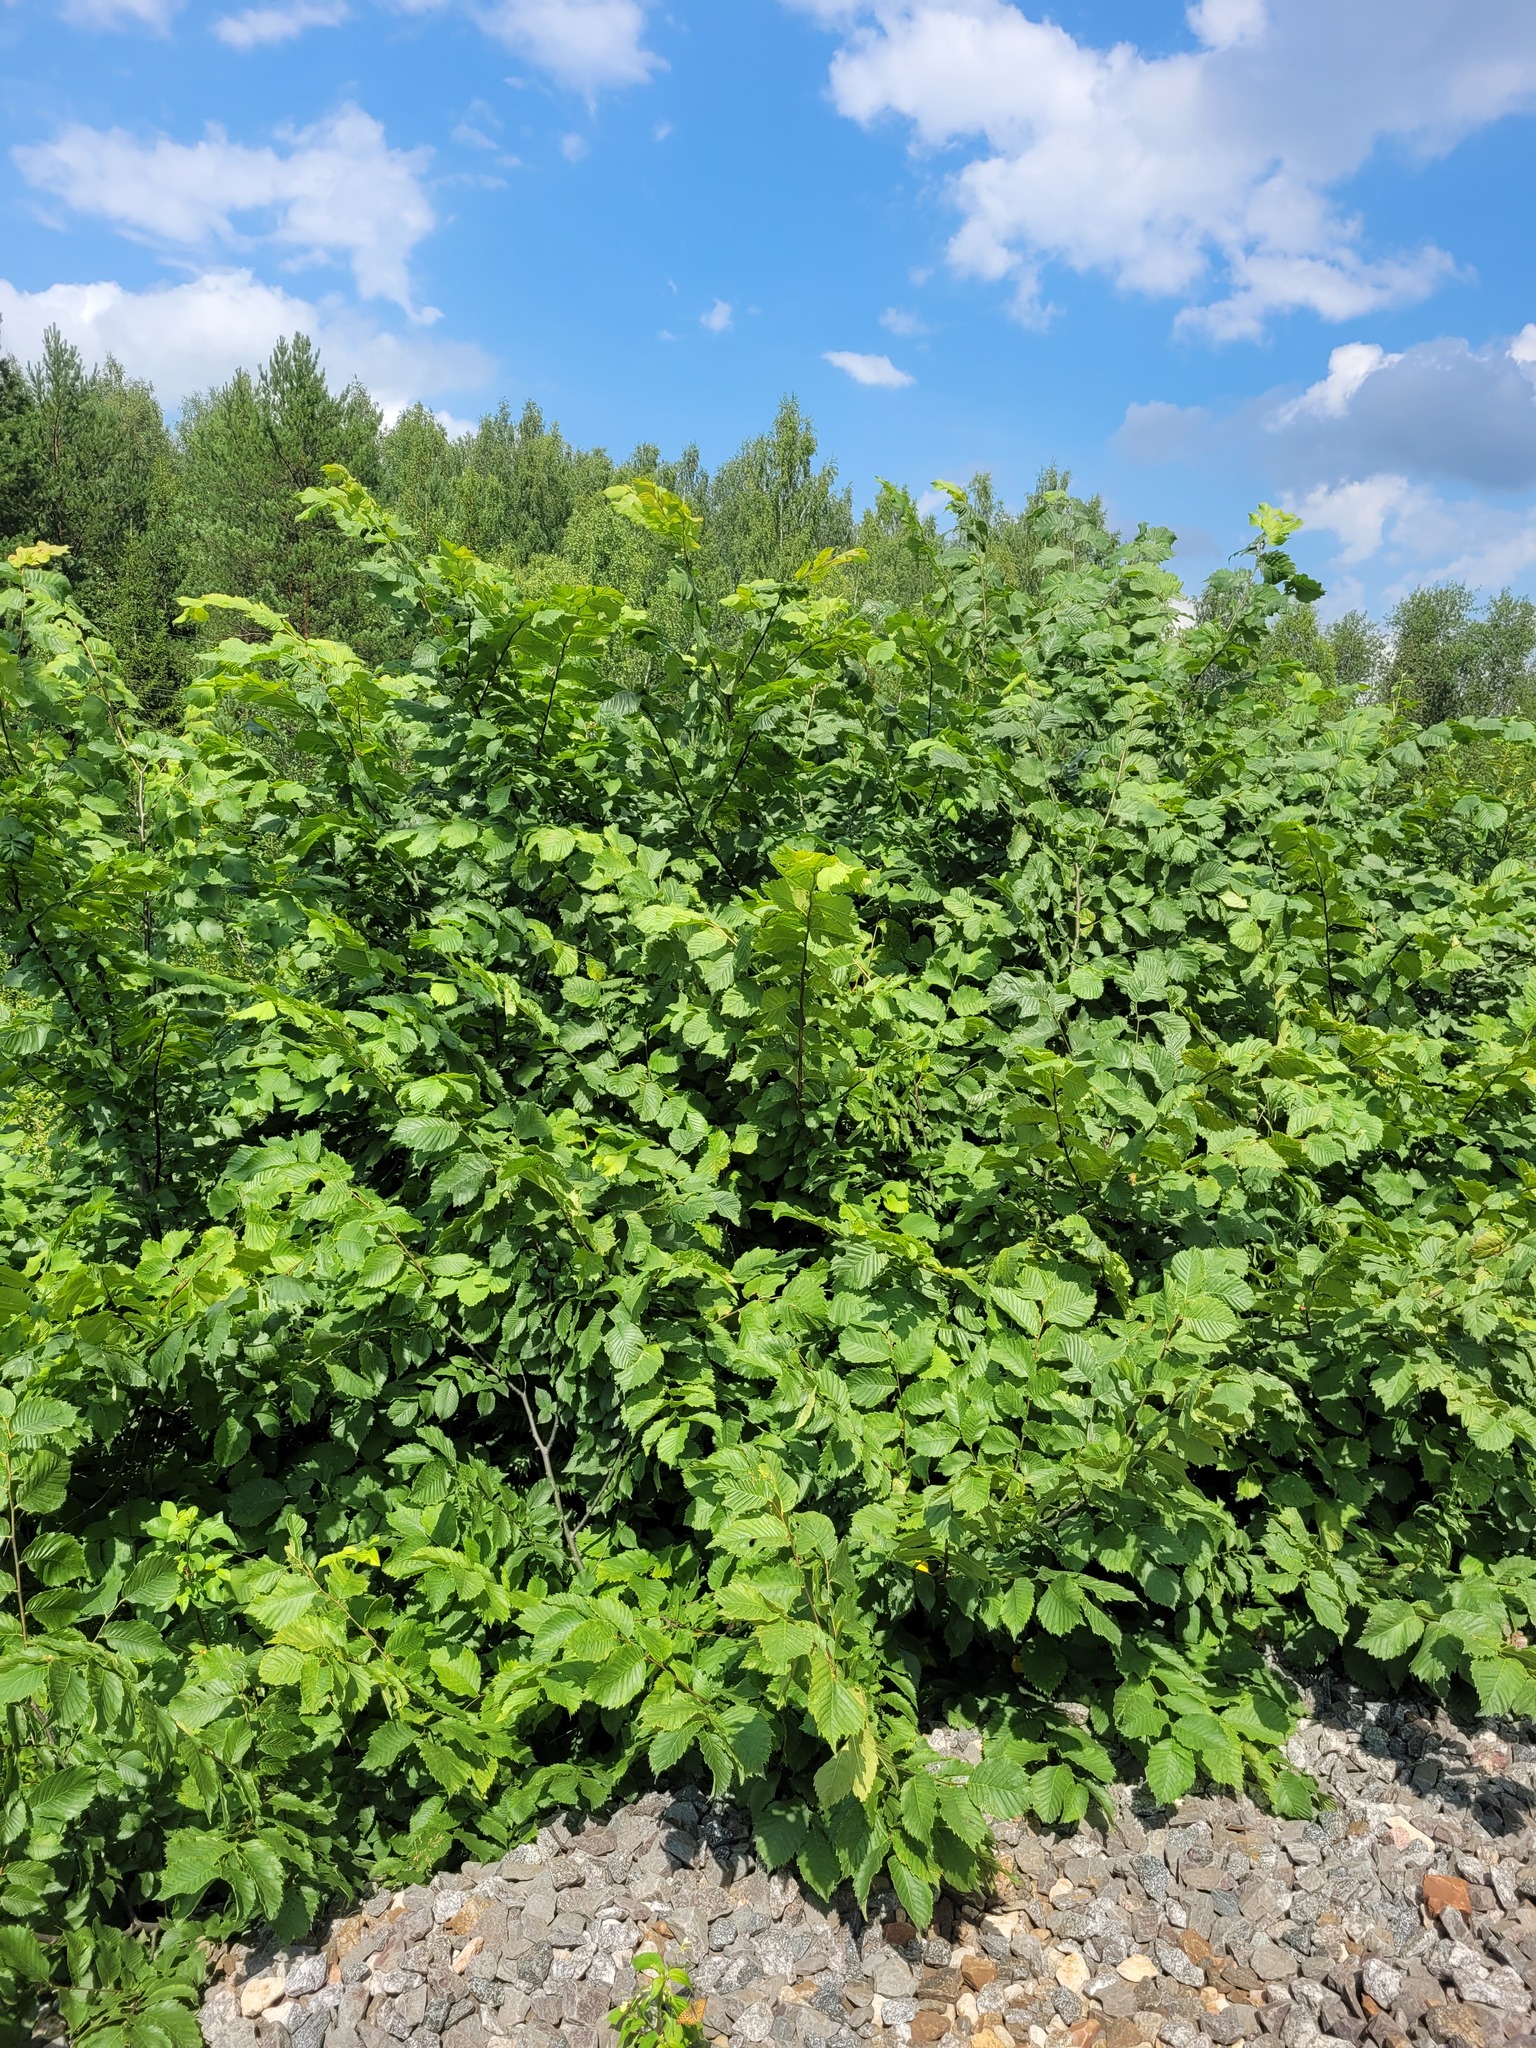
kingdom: Plantae
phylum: Tracheophyta
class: Magnoliopsida
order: Rosales
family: Ulmaceae
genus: Ulmus
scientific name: Ulmus laevis
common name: European white-elm
